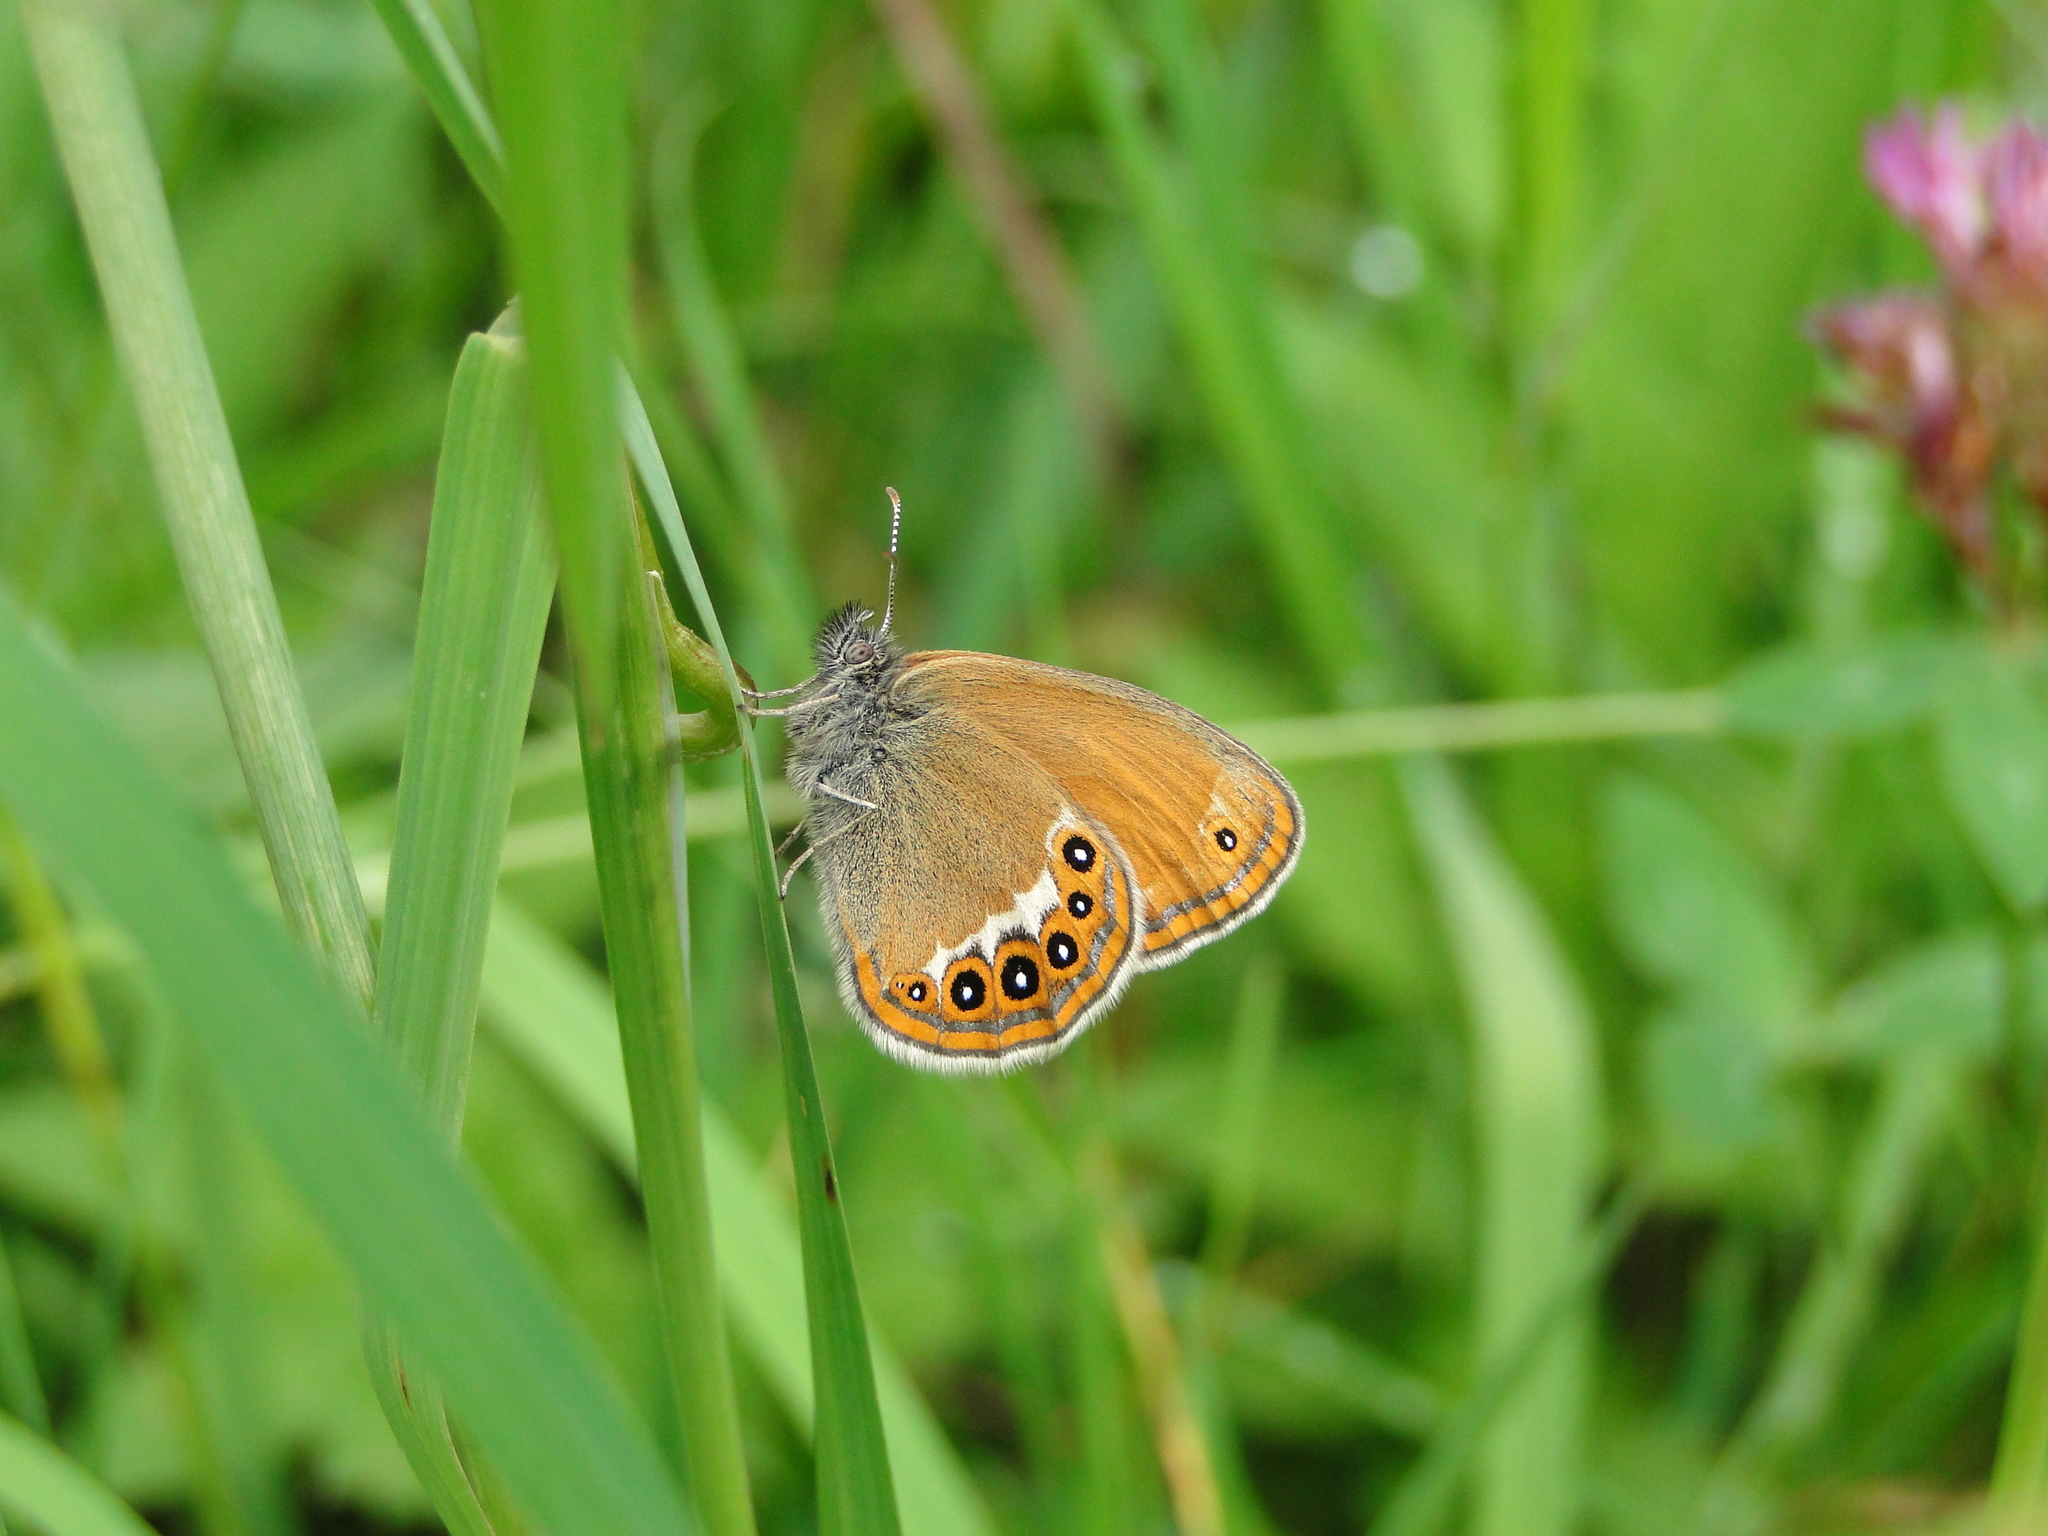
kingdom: Animalia
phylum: Arthropoda
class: Insecta
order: Lepidoptera
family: Nymphalidae
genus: Coenonympha
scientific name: Coenonympha hero
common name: Scarce heath
